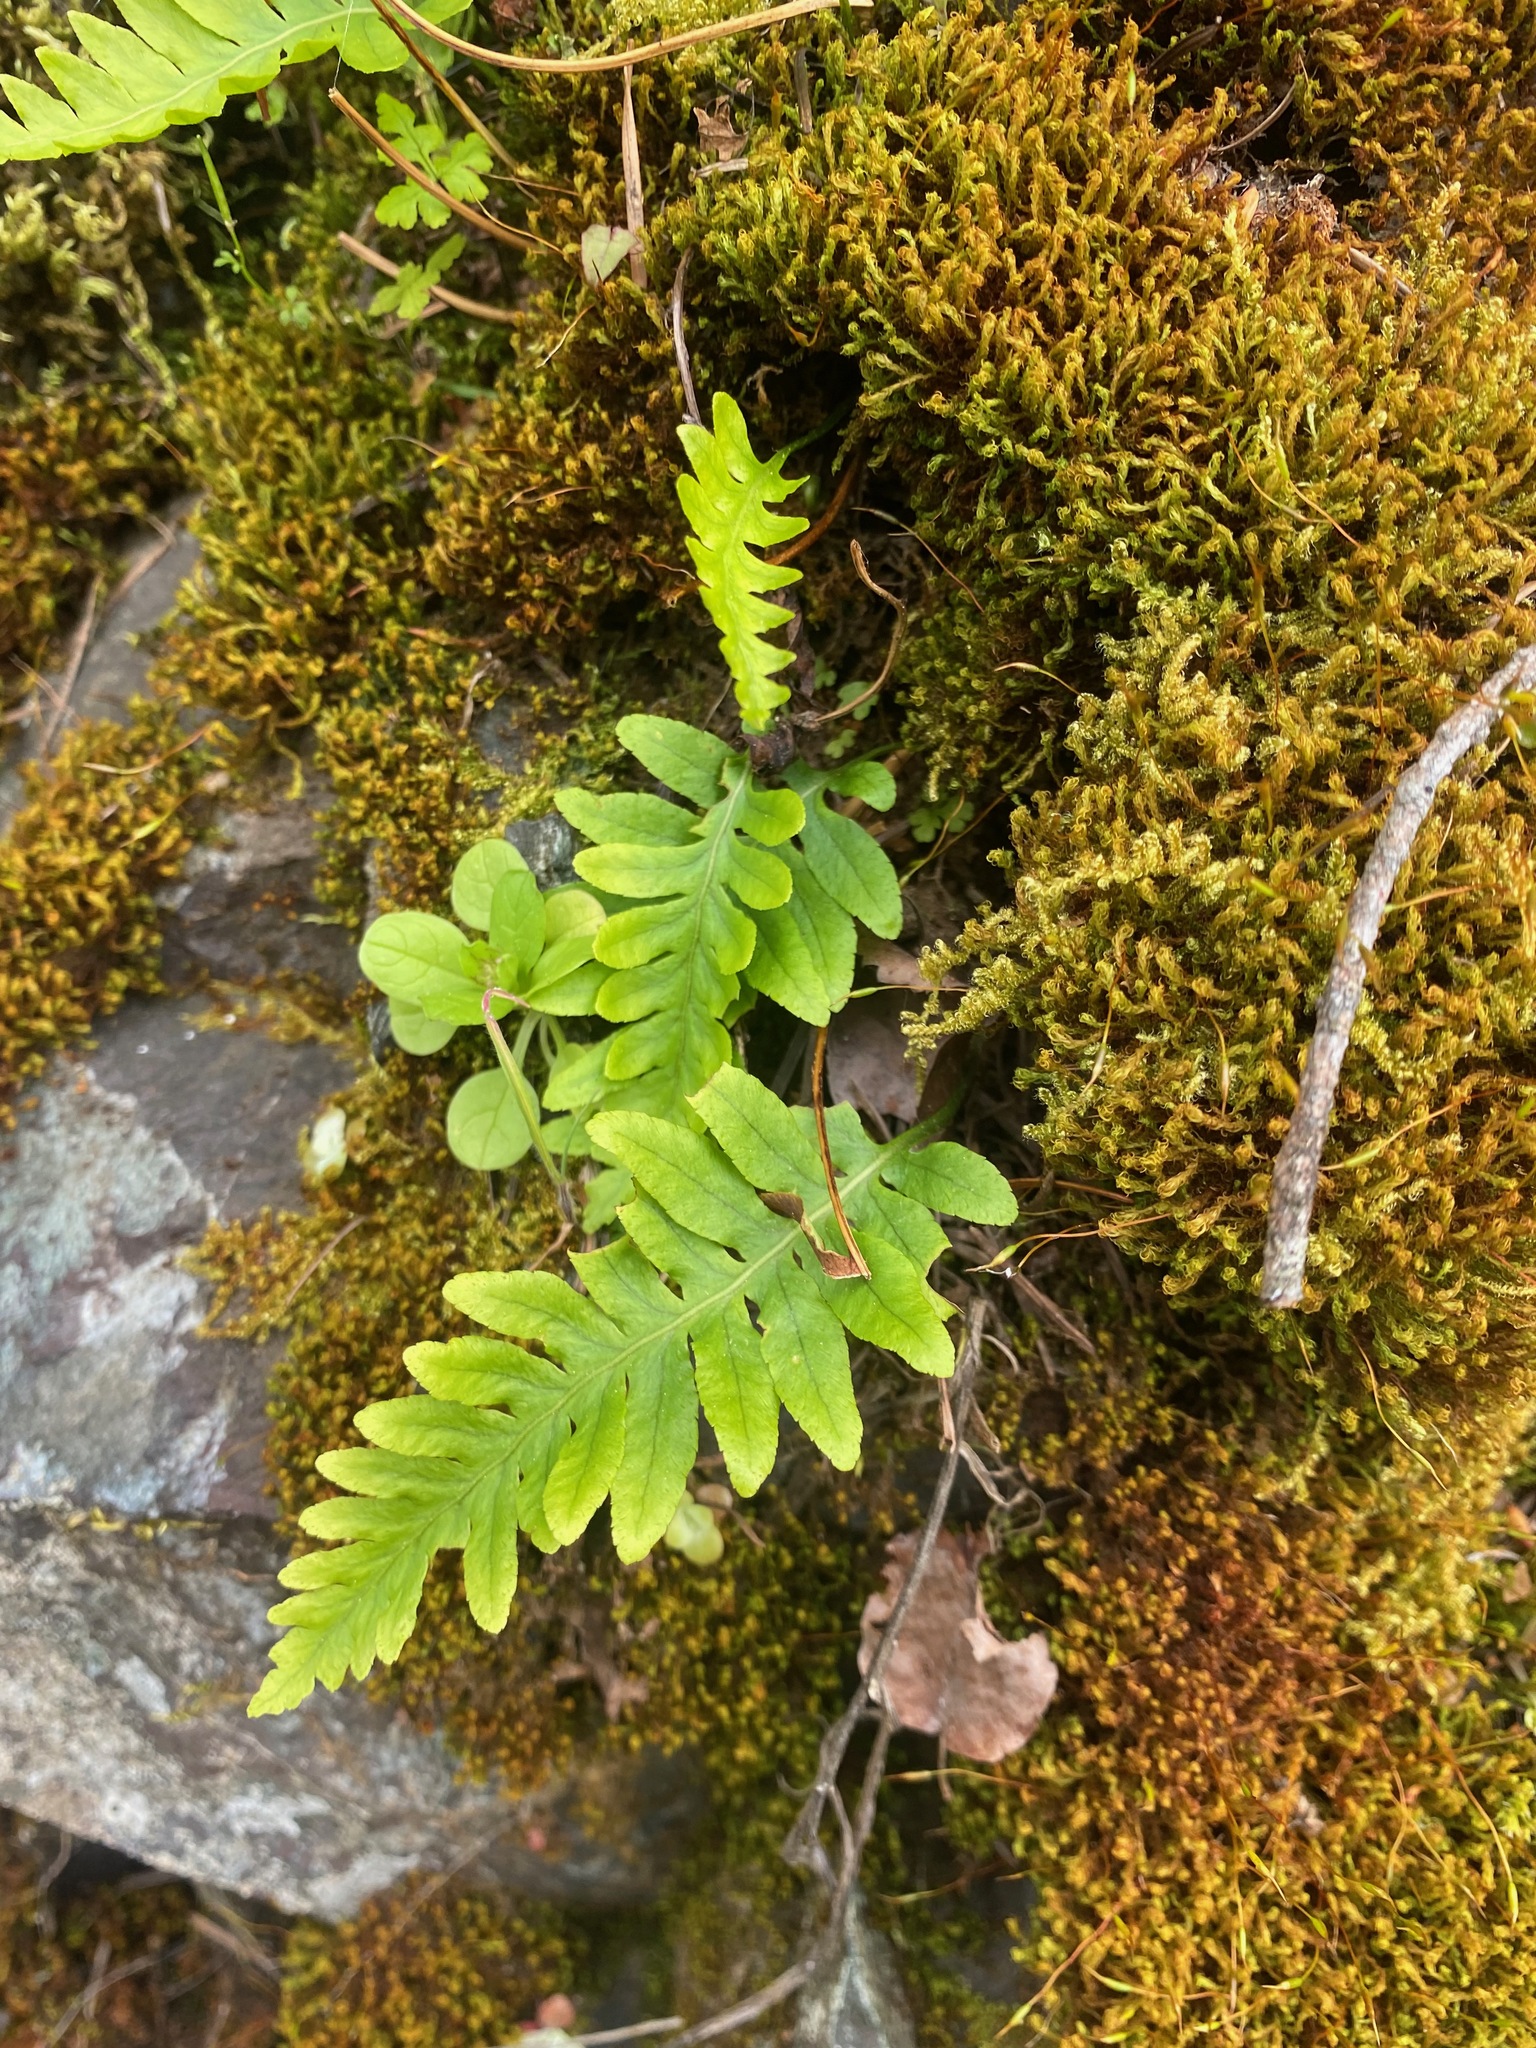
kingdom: Plantae
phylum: Tracheophyta
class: Polypodiopsida
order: Polypodiales
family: Polypodiaceae
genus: Polypodium
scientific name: Polypodium glycyrrhiza
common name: Licorice fern
